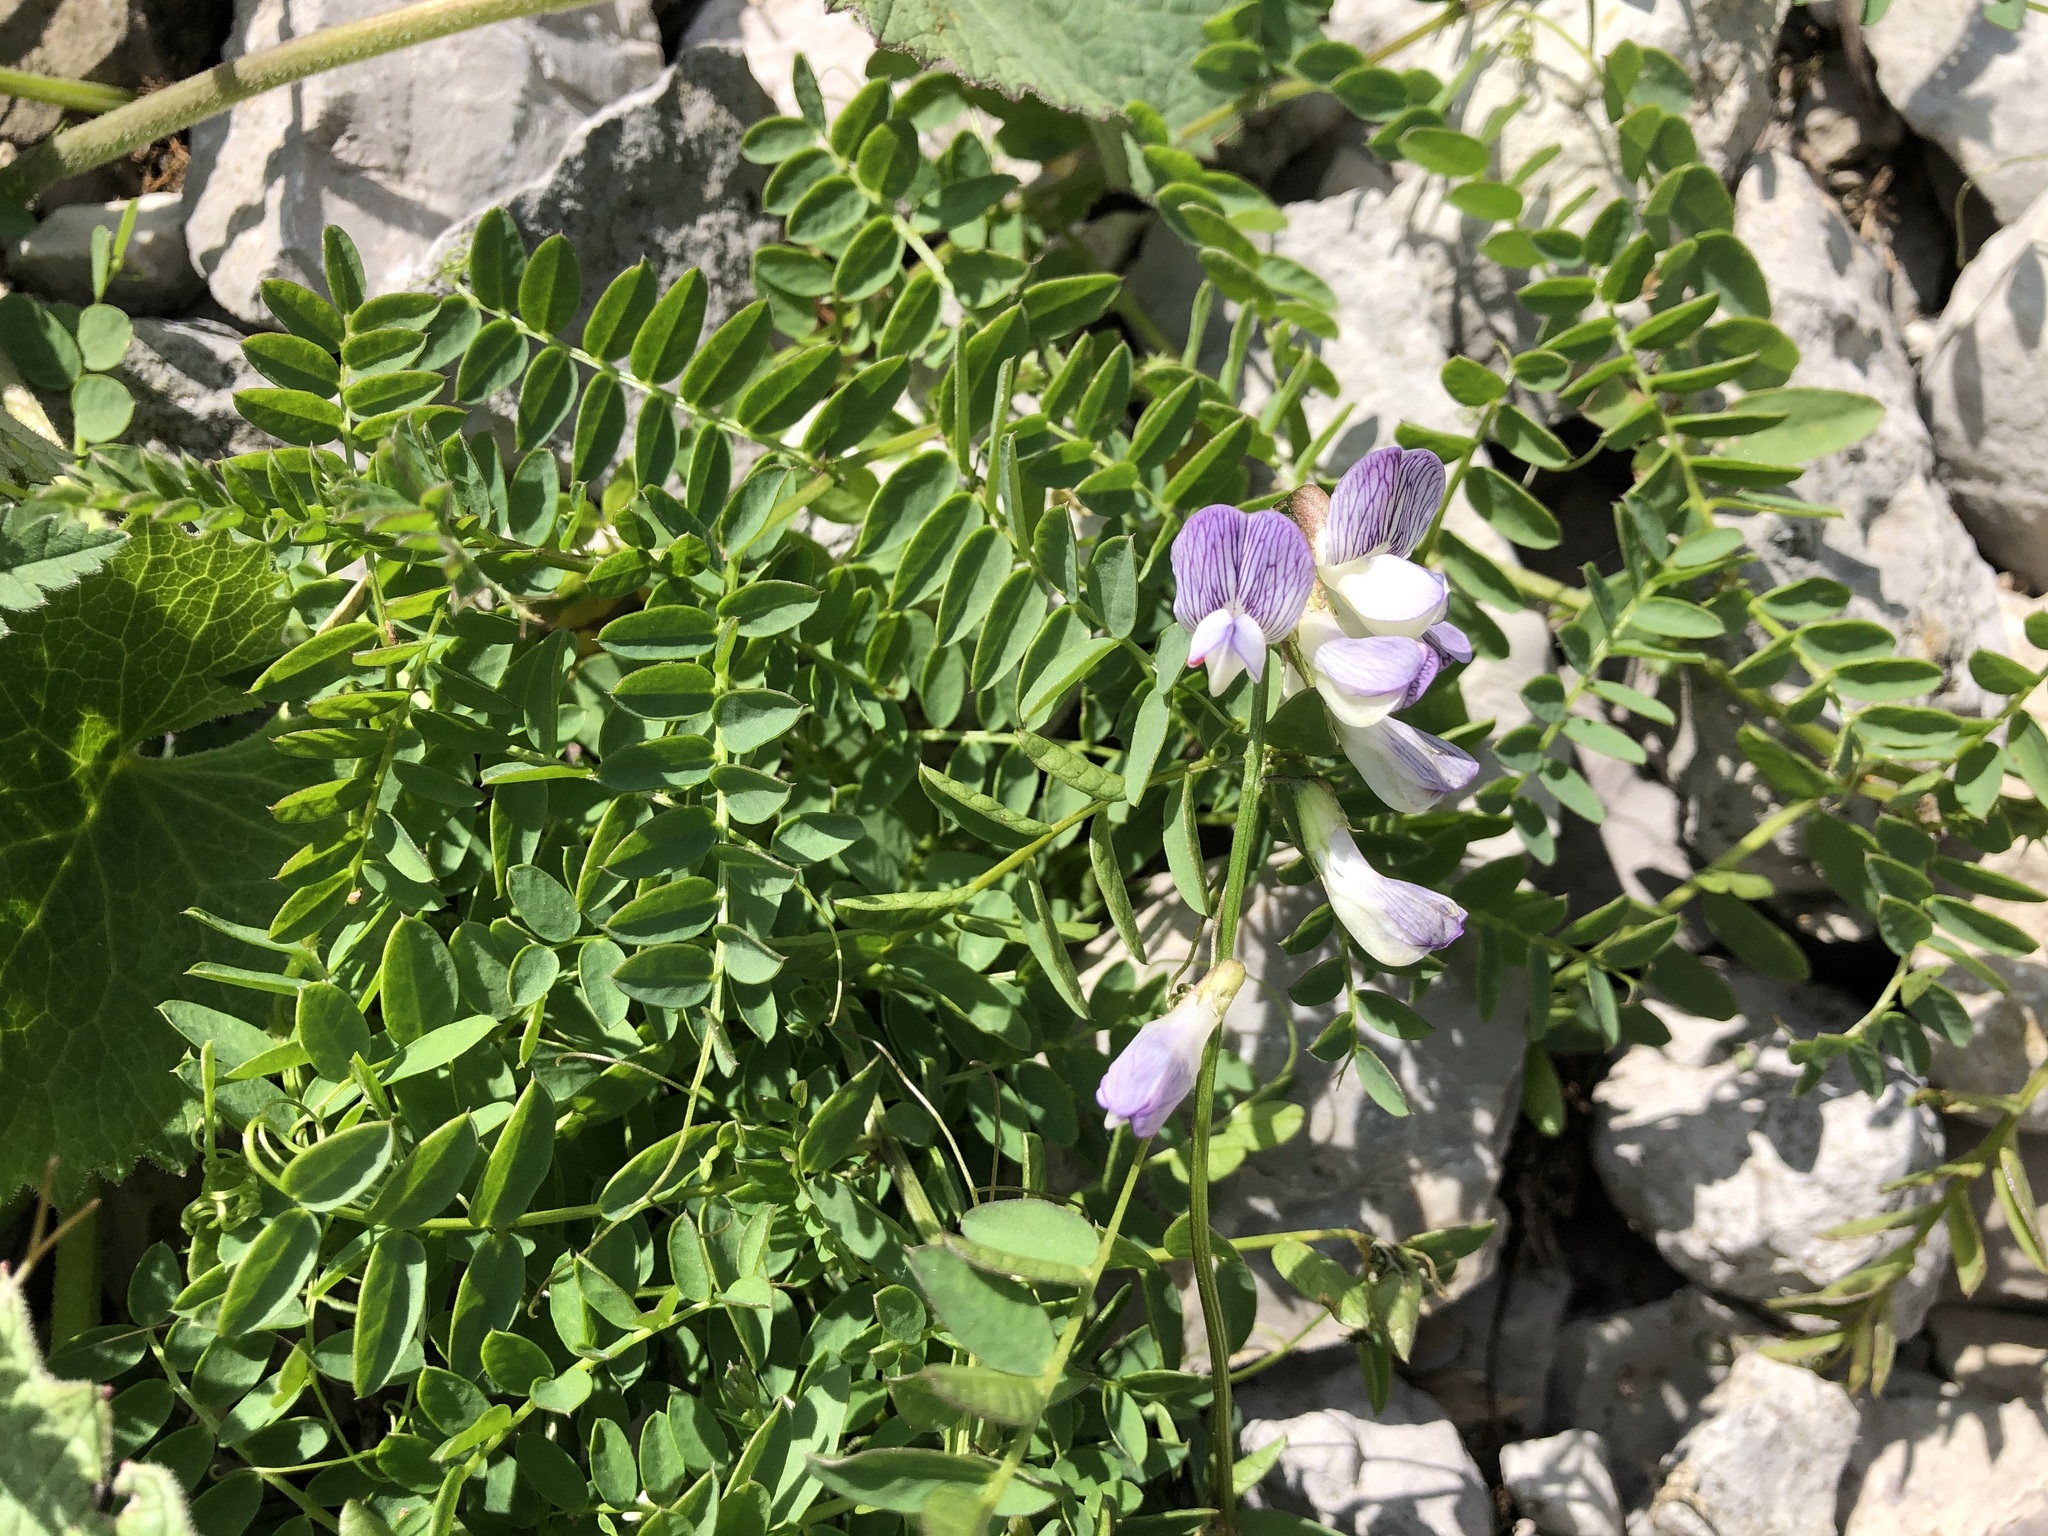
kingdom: Plantae
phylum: Tracheophyta
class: Magnoliopsida
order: Fabales
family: Fabaceae
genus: Vicia
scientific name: Vicia sylvatica
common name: Wood vetch
